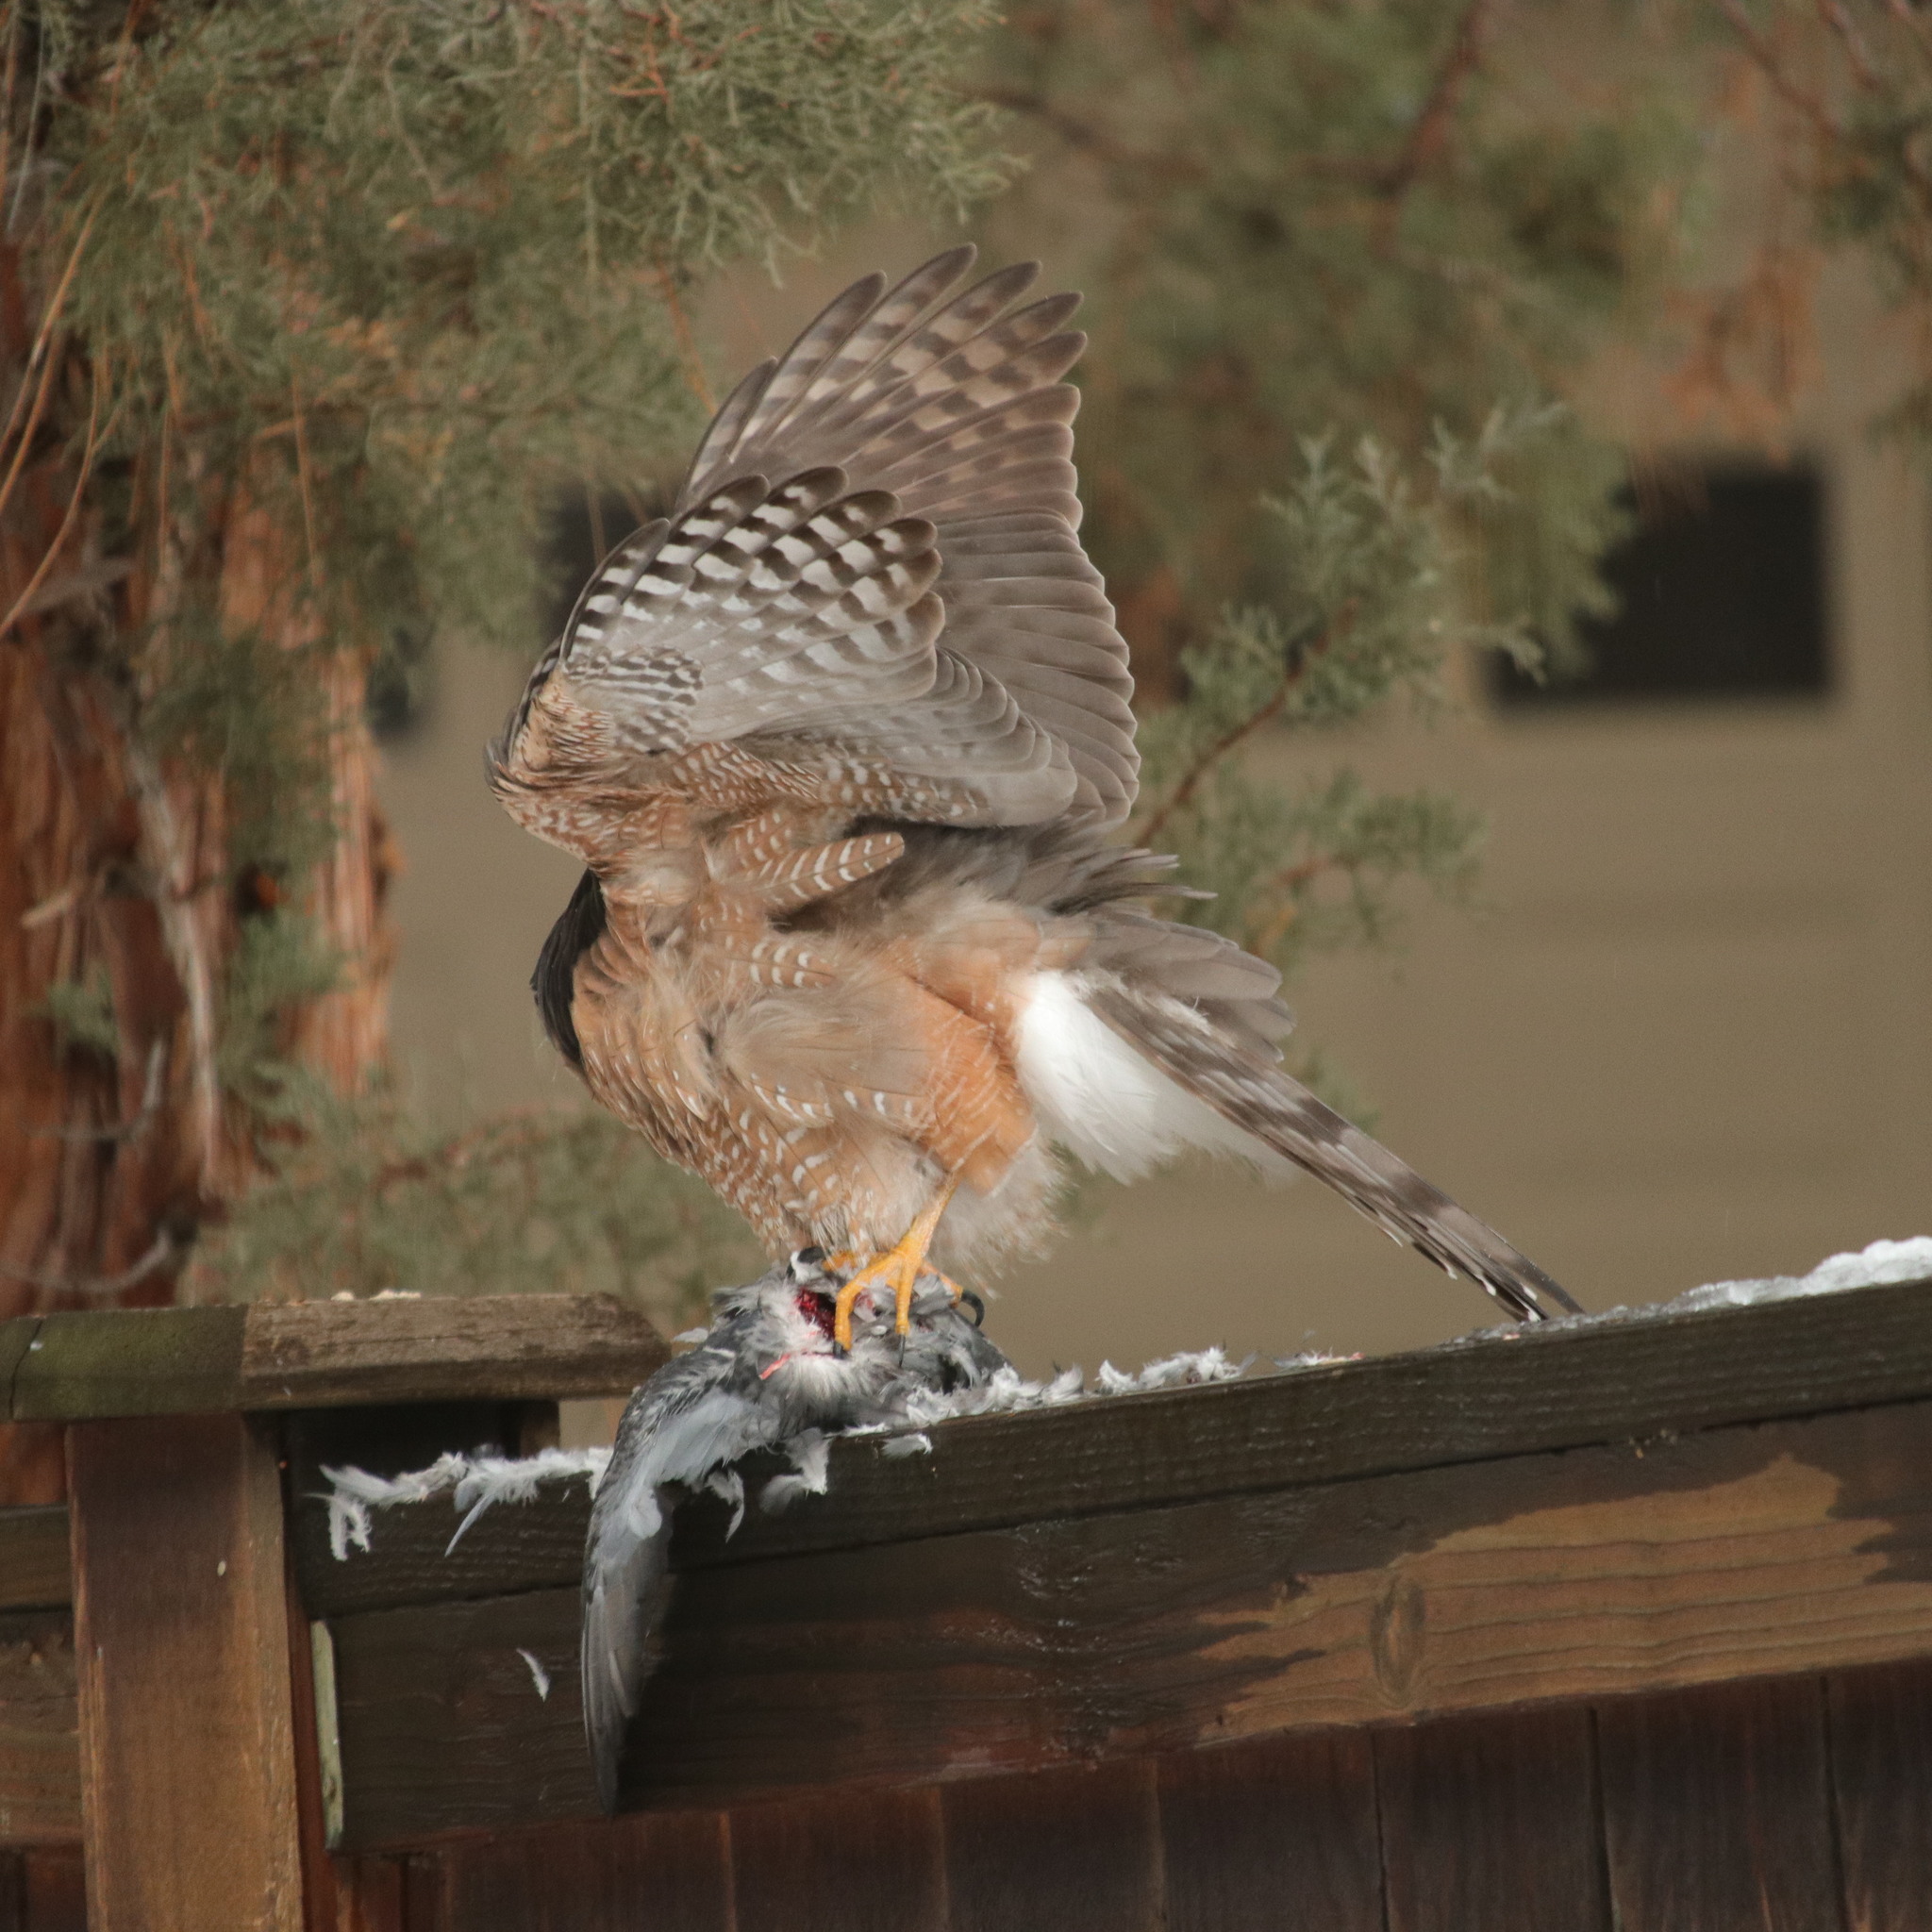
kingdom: Animalia
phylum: Chordata
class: Aves
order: Accipitriformes
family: Accipitridae
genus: Accipiter
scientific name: Accipiter cooperii
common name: Cooper's hawk
